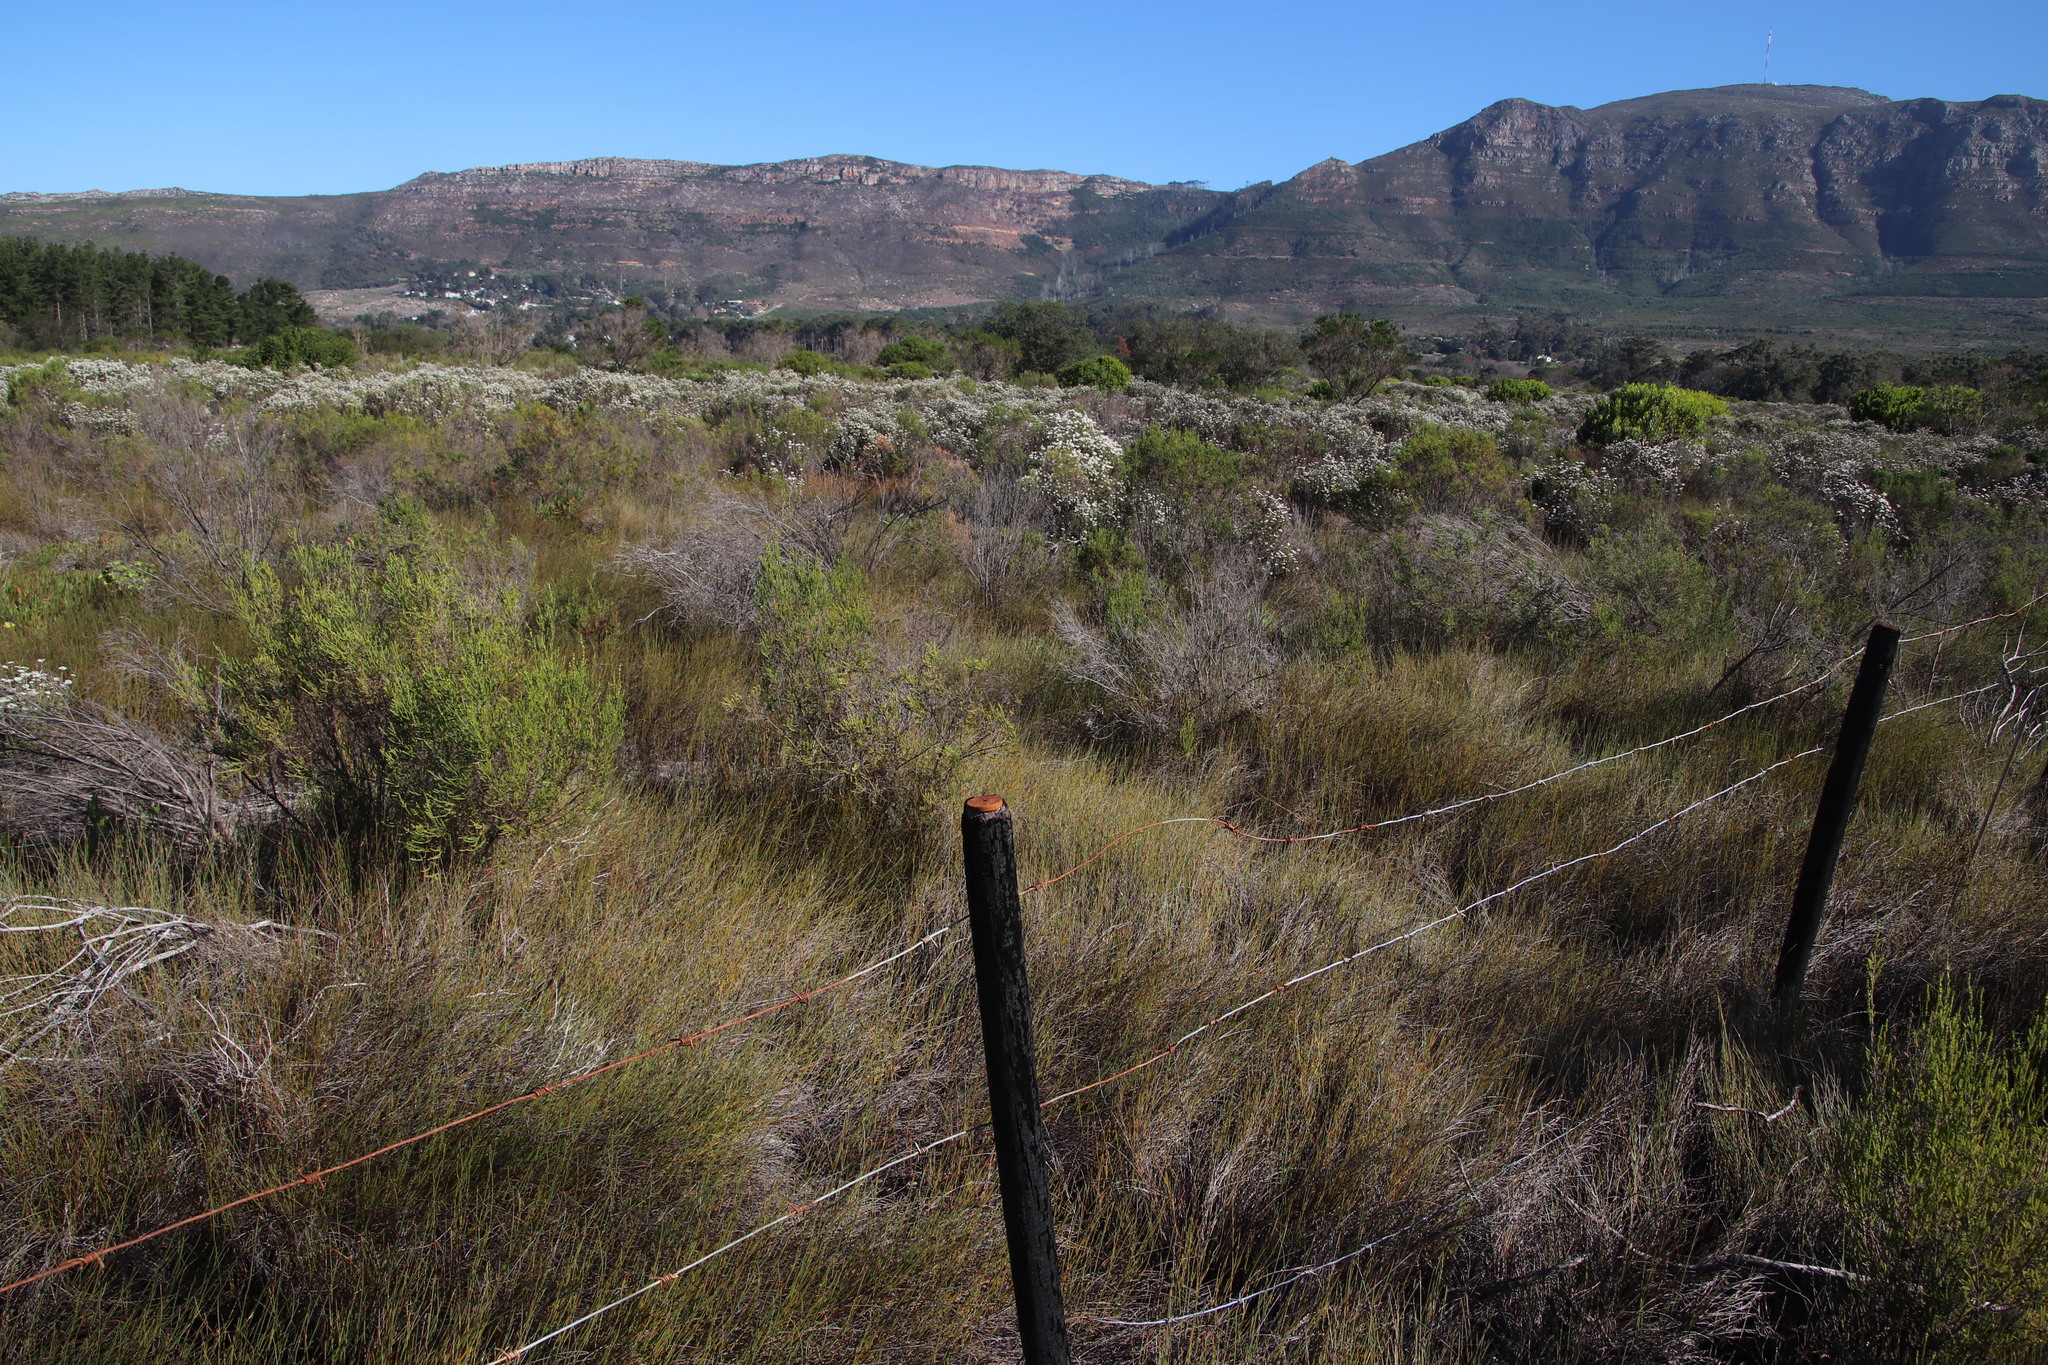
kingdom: Plantae
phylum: Tracheophyta
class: Liliopsida
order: Poales
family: Restionaceae
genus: Willdenowia
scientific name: Willdenowia sulcata
